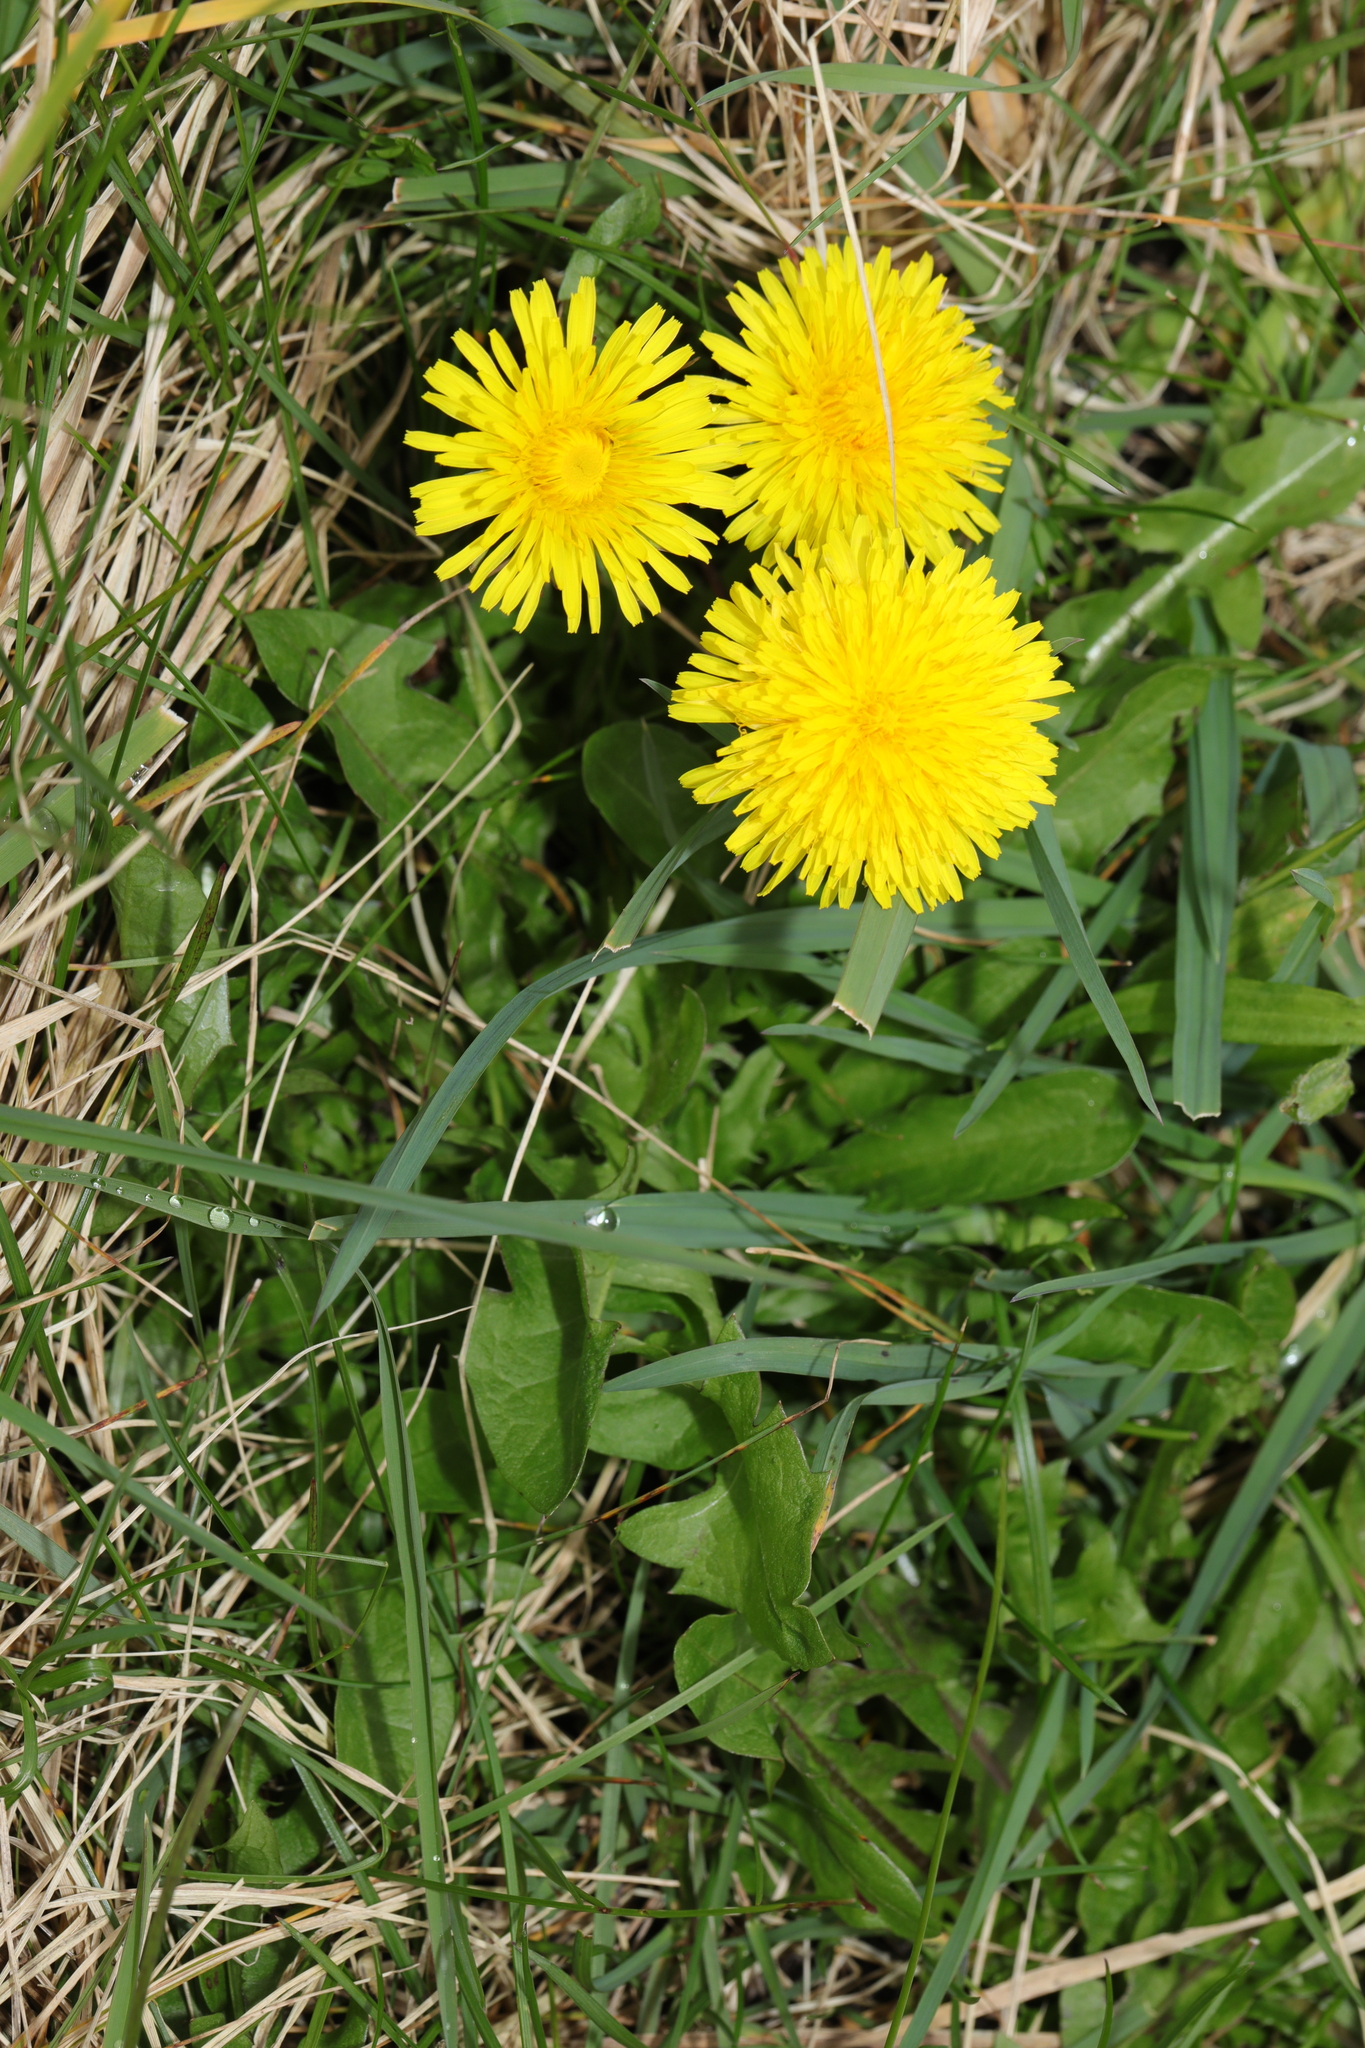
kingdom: Plantae
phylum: Tracheophyta
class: Magnoliopsida
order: Asterales
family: Asteraceae
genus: Taraxacum
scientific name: Taraxacum officinale
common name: Common dandelion
